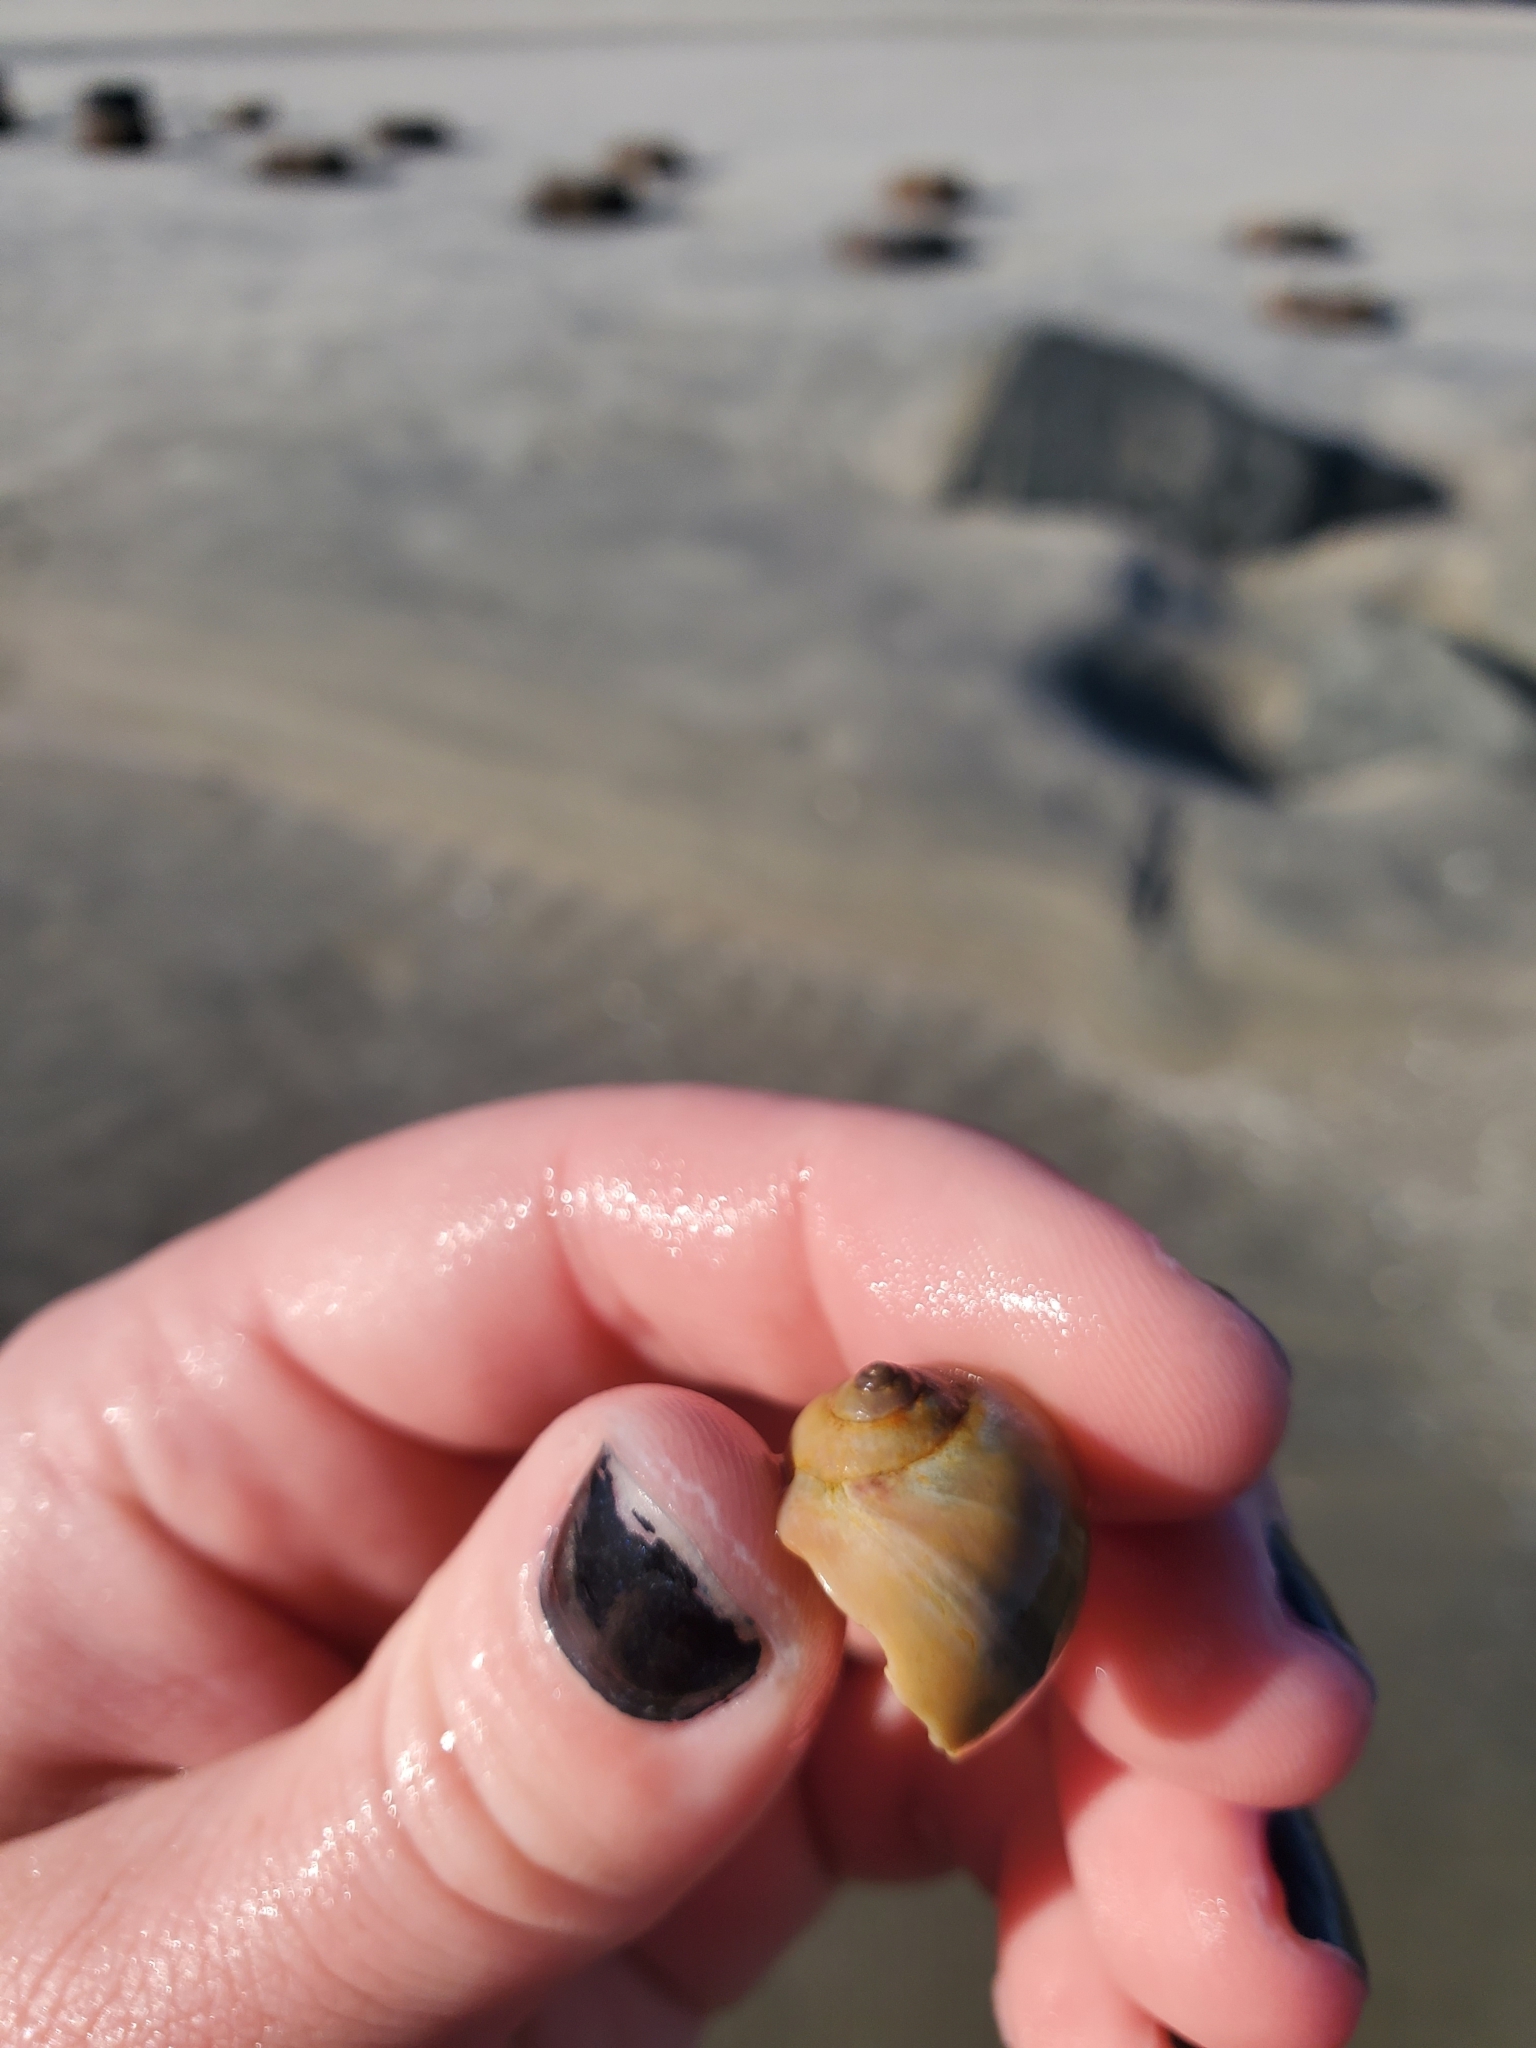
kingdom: Animalia
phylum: Arthropoda
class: Malacostraca
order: Decapoda
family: Paguridae
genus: Pagurus
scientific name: Pagurus longicarpus
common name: Long-armed hermit crab
